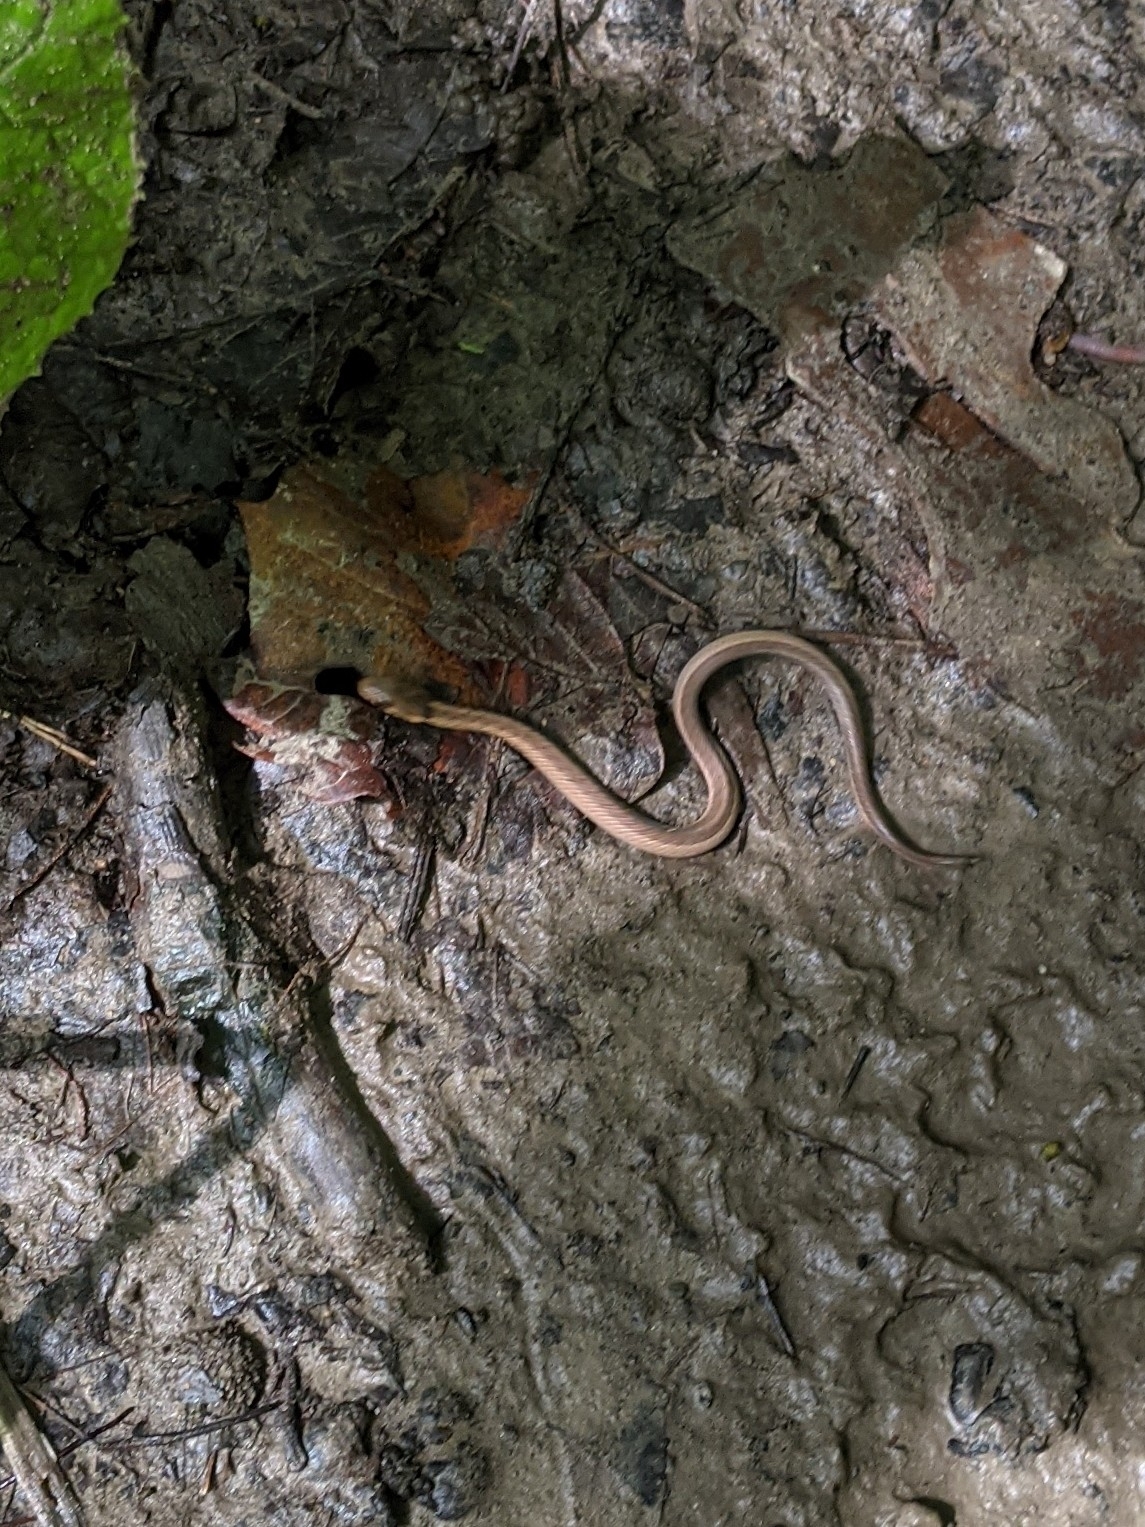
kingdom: Animalia
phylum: Chordata
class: Squamata
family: Colubridae
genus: Storeria
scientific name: Storeria dekayi
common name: (dekay’s) brown snake
